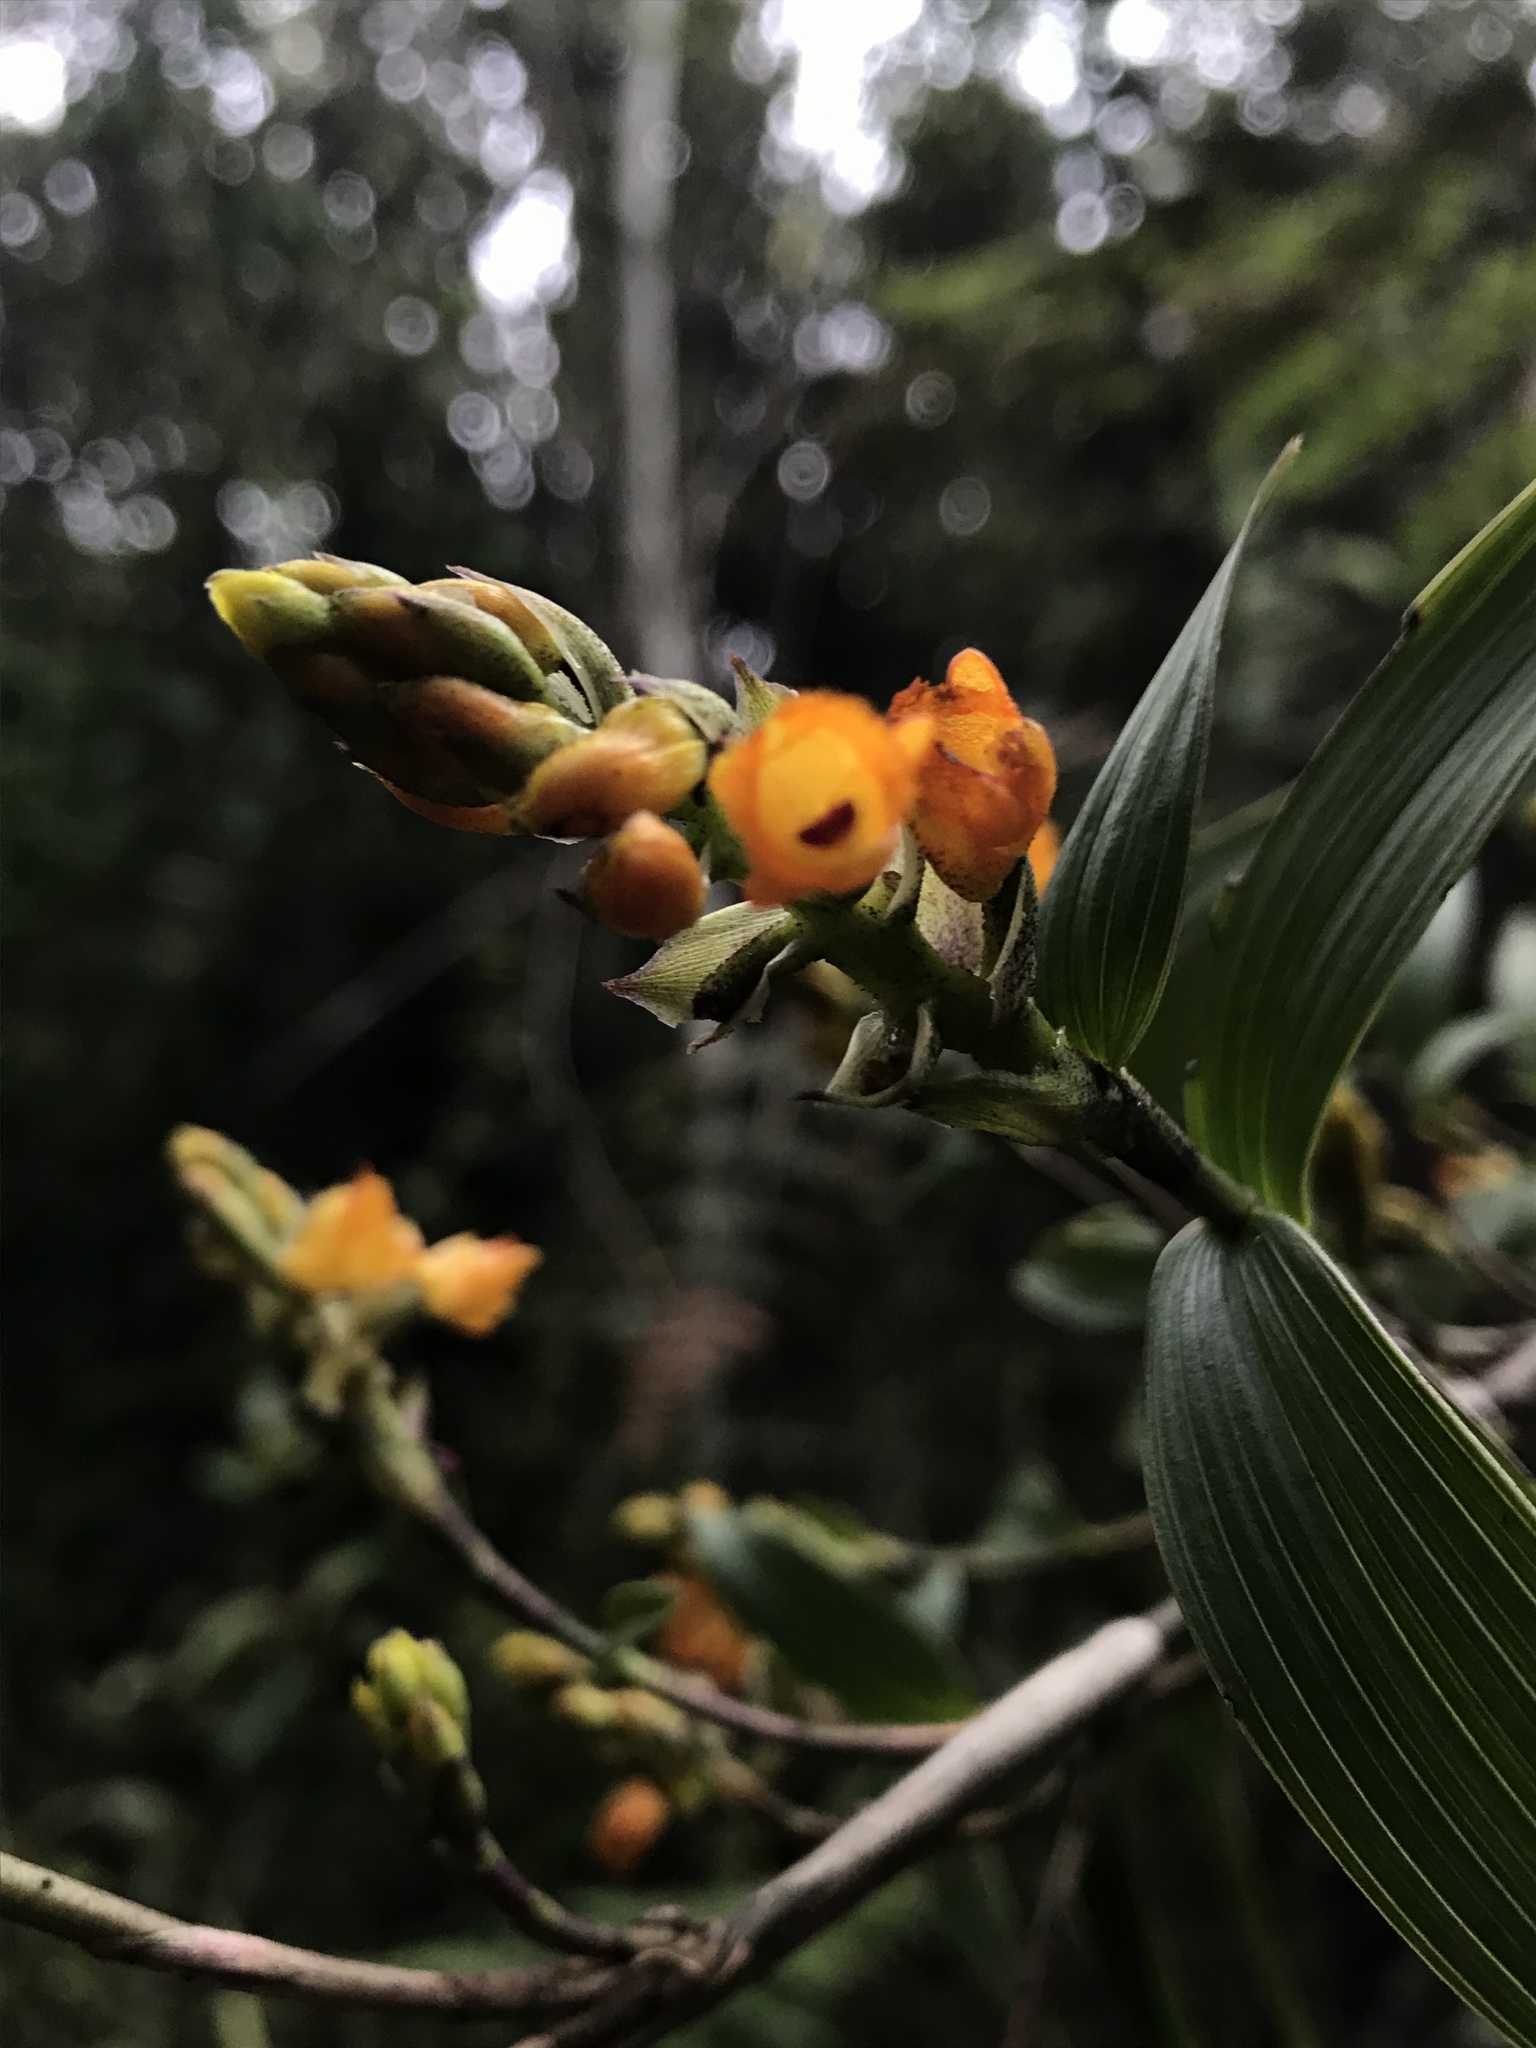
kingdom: Plantae
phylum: Tracheophyta
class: Liliopsida
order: Asparagales
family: Orchidaceae
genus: Elleanthus
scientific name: Elleanthus aurantiacus
